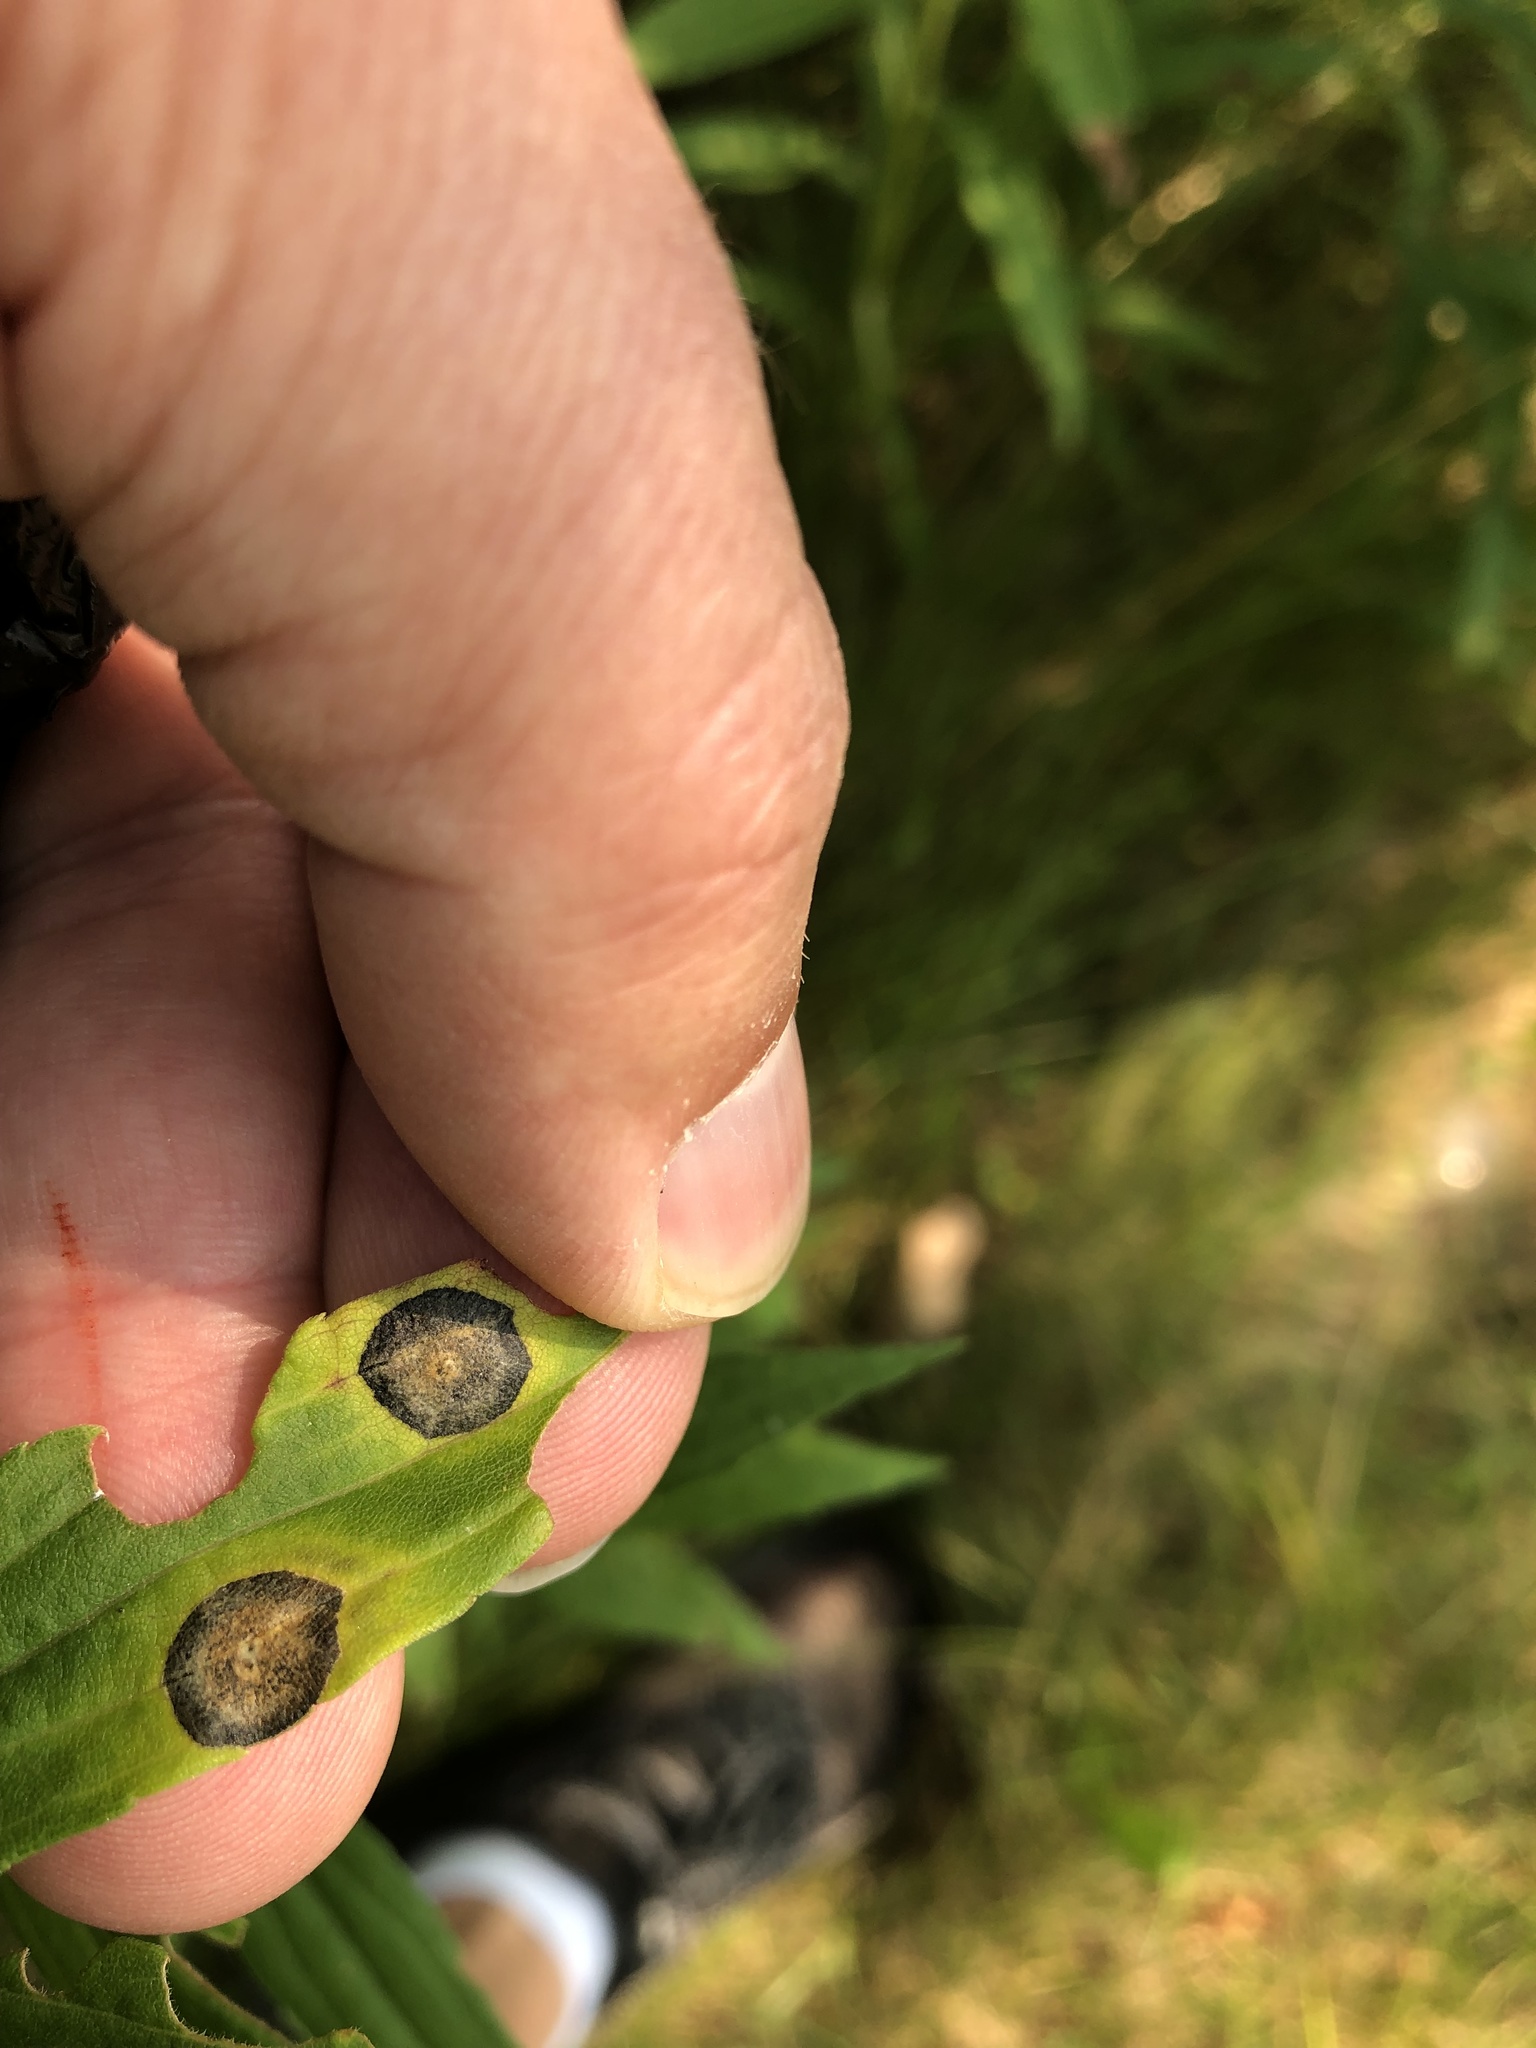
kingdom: Animalia
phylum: Arthropoda
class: Insecta
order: Diptera
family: Cecidomyiidae
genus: Asteromyia
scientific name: Asteromyia carbonifera
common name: Carbonifera goldenrod gall midge
